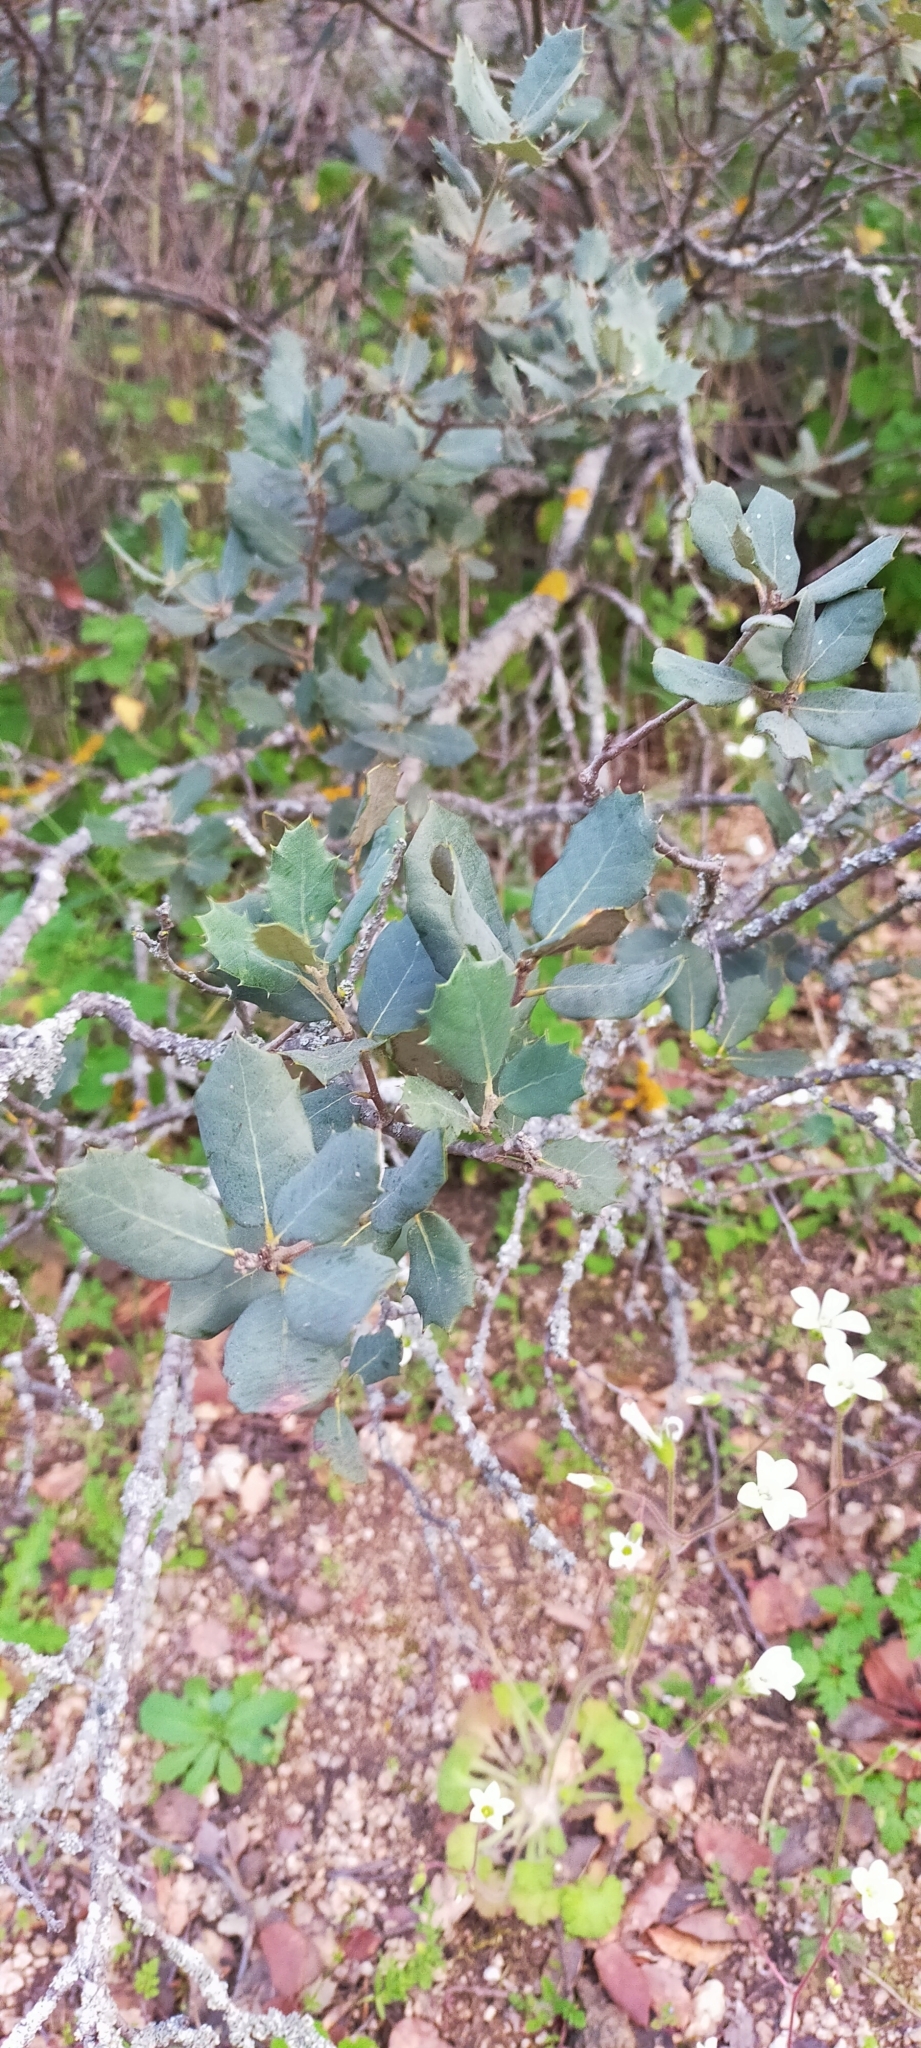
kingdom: Plantae
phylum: Tracheophyta
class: Magnoliopsida
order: Fagales
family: Fagaceae
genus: Quercus
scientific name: Quercus rotundifolia
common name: Holm oak
